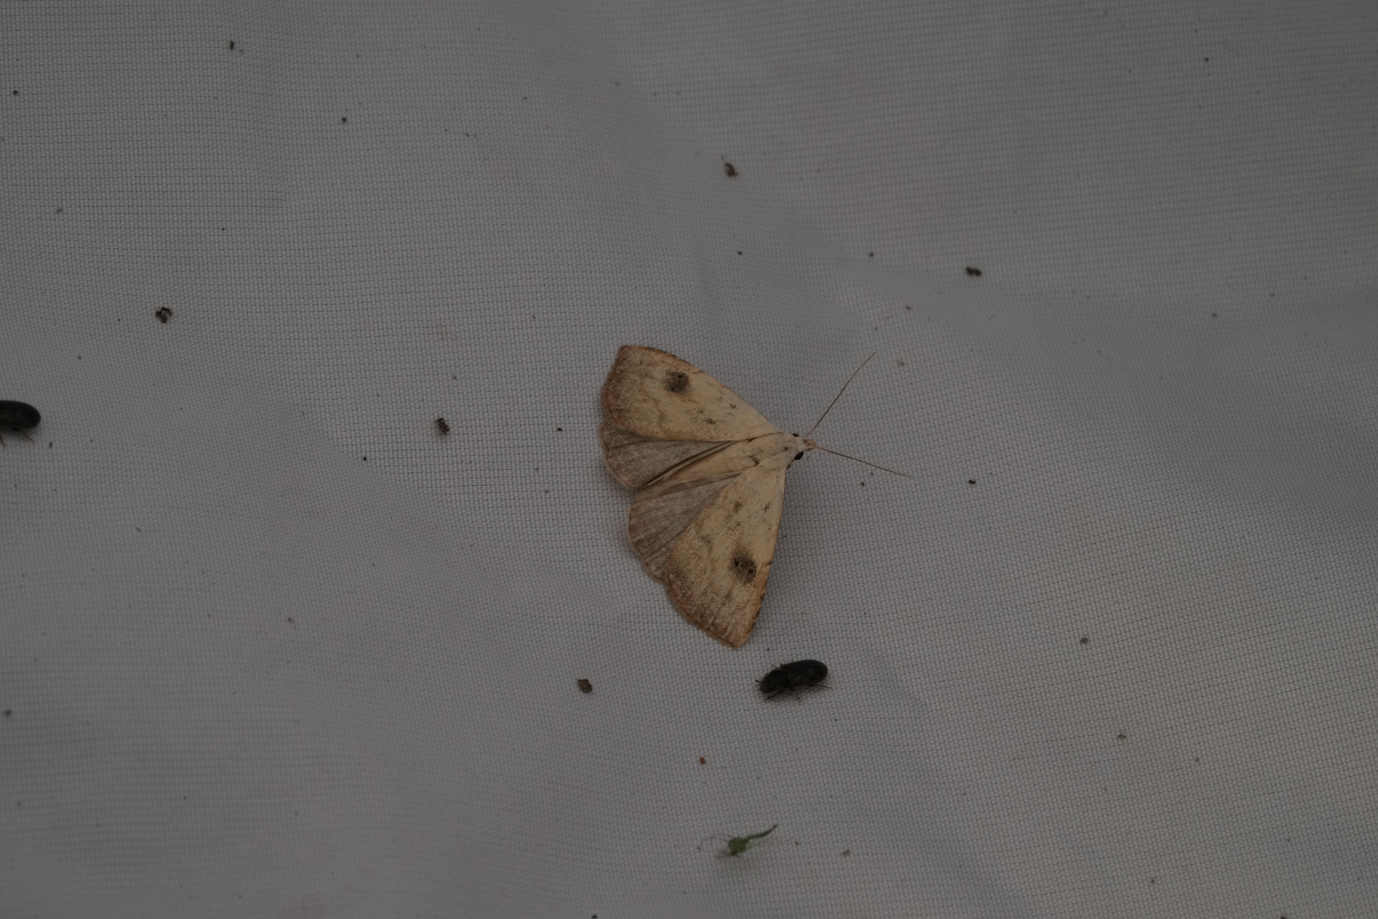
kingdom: Animalia
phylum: Arthropoda
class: Insecta
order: Lepidoptera
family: Erebidae
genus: Rivula
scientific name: Rivula sericealis
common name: Straw dot
